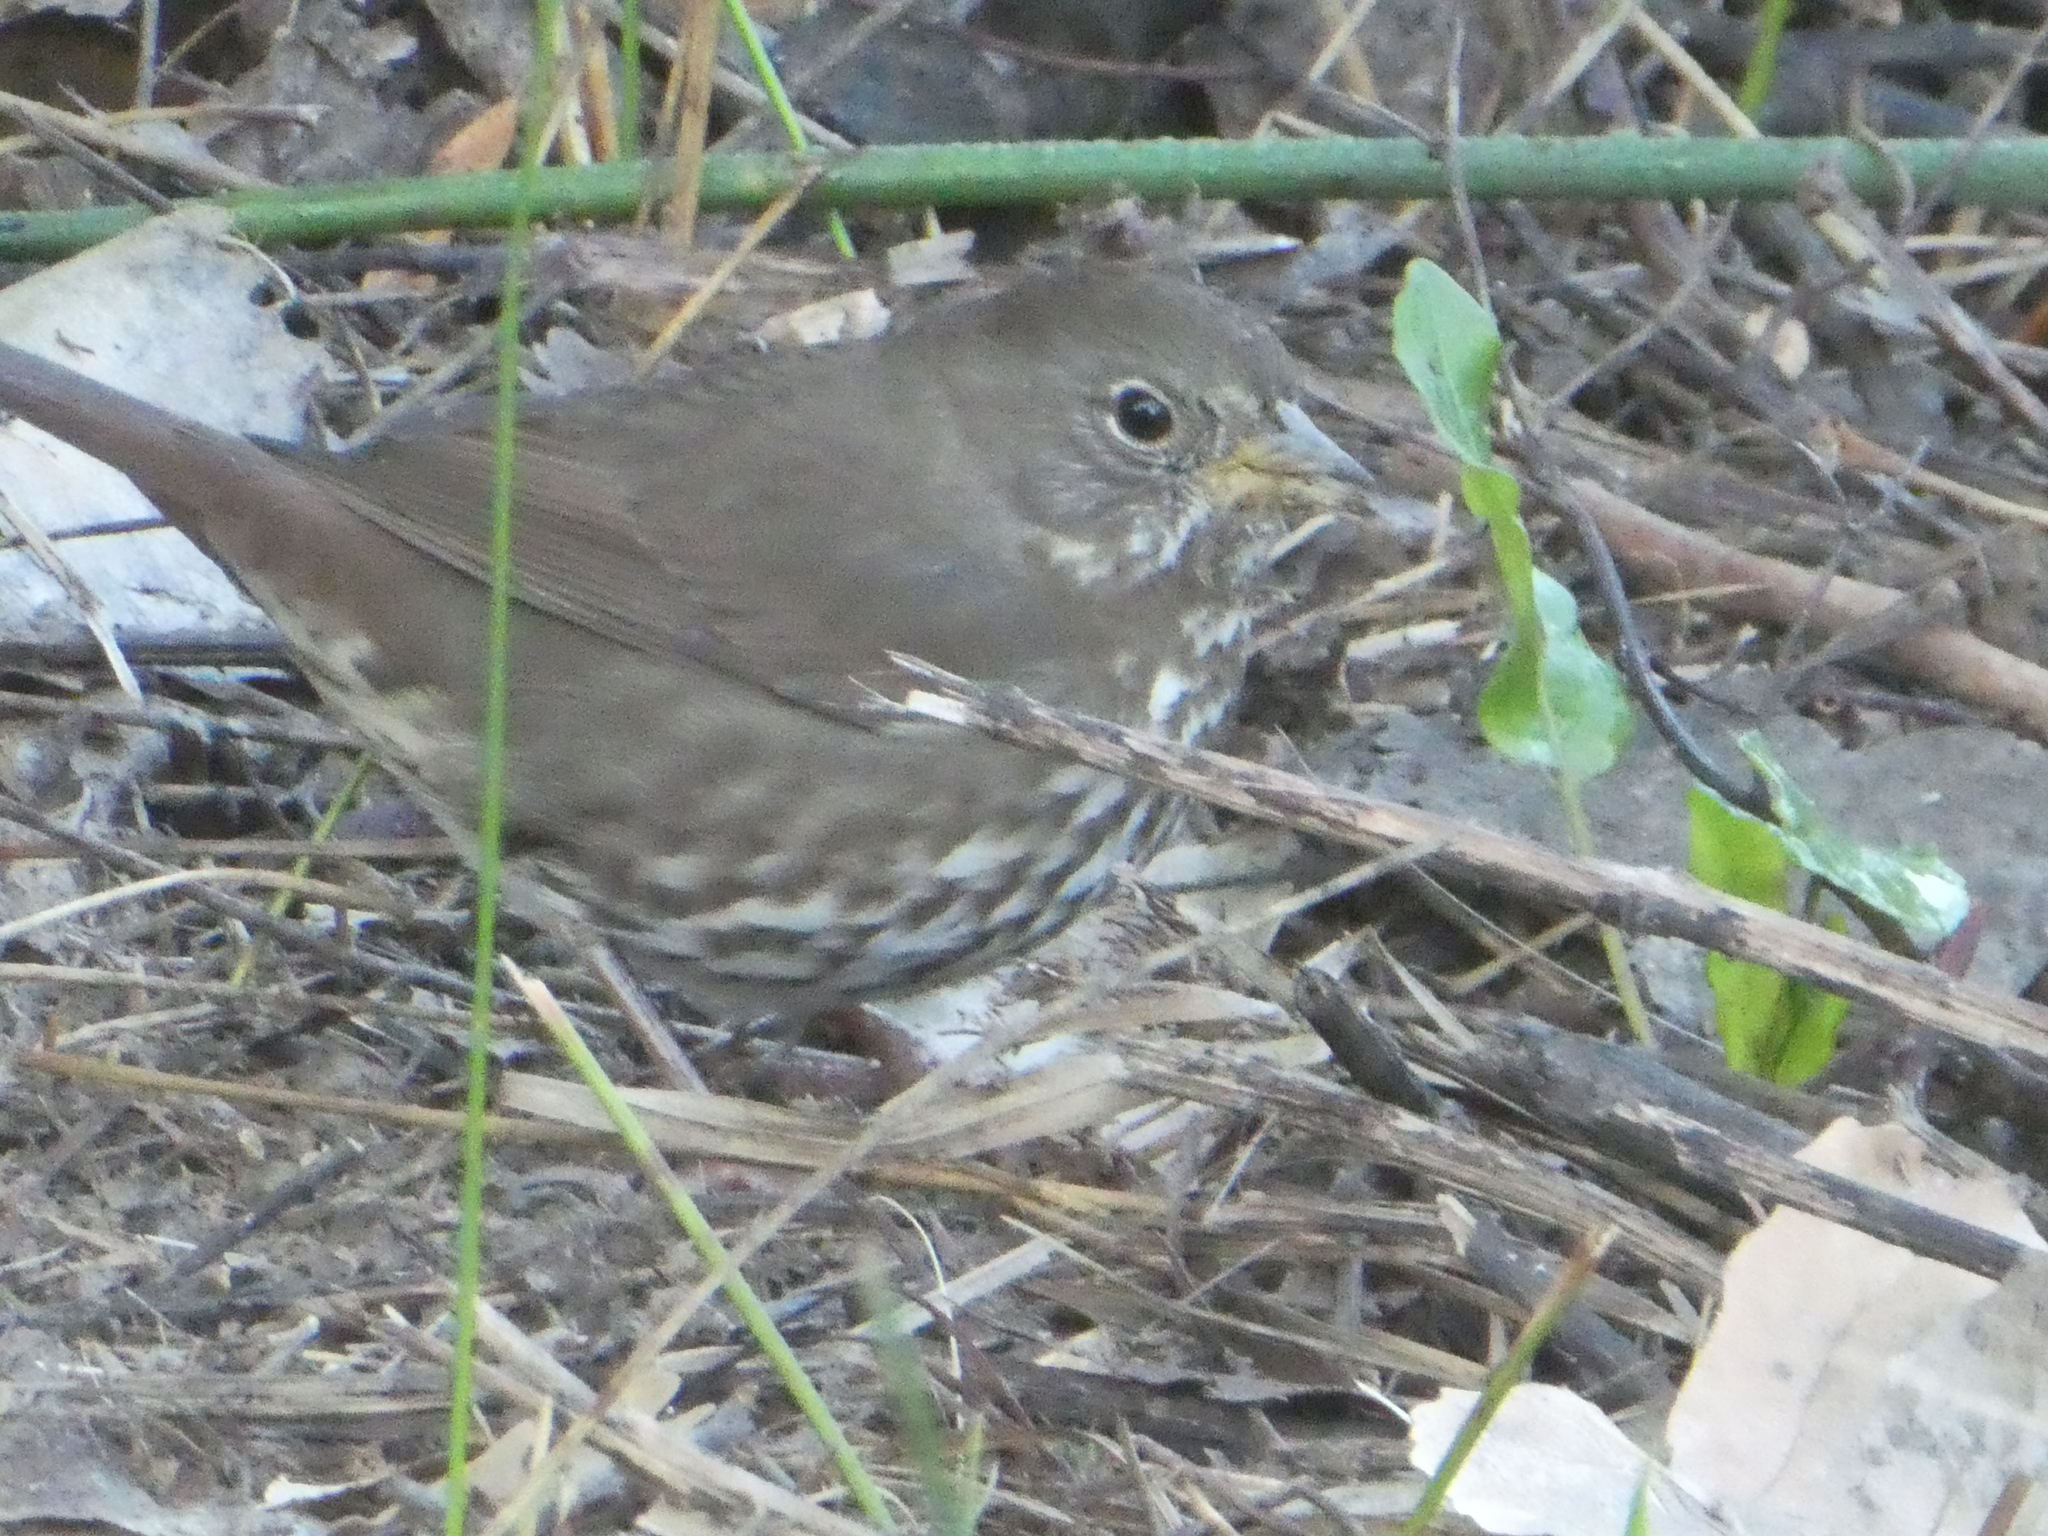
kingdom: Animalia
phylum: Chordata
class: Aves
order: Passeriformes
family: Passerellidae
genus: Passerella
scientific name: Passerella iliaca
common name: Fox sparrow
